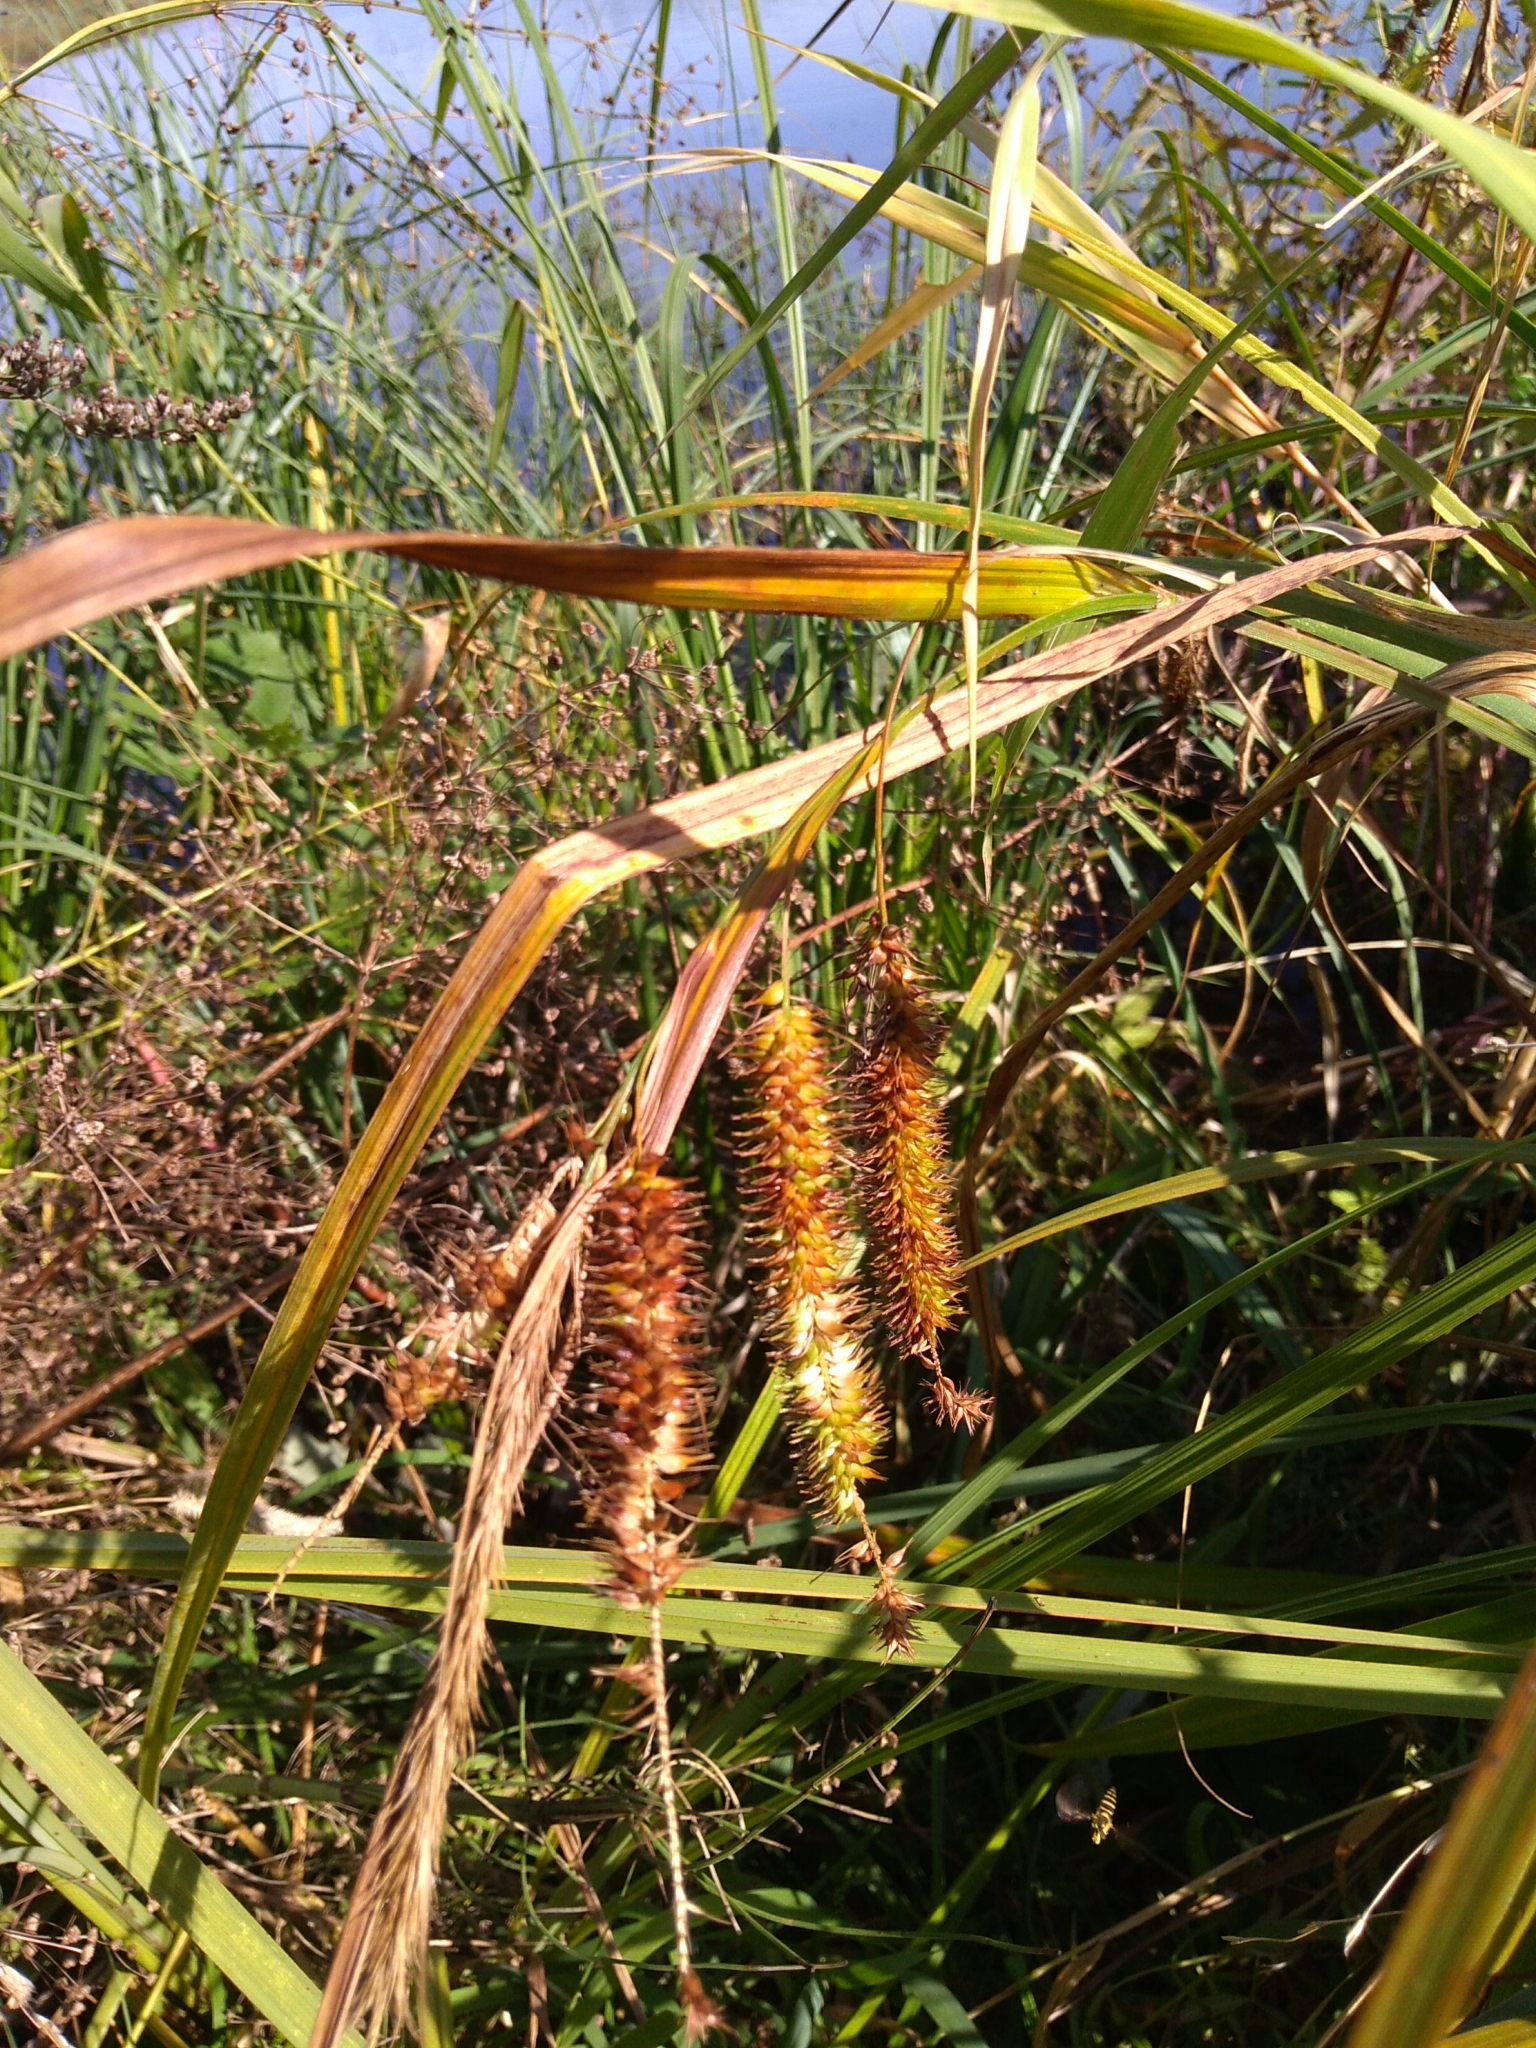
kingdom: Plantae
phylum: Tracheophyta
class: Liliopsida
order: Poales
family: Cyperaceae
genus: Carex
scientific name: Carex pseudocyperus
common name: Cyperus sedge
